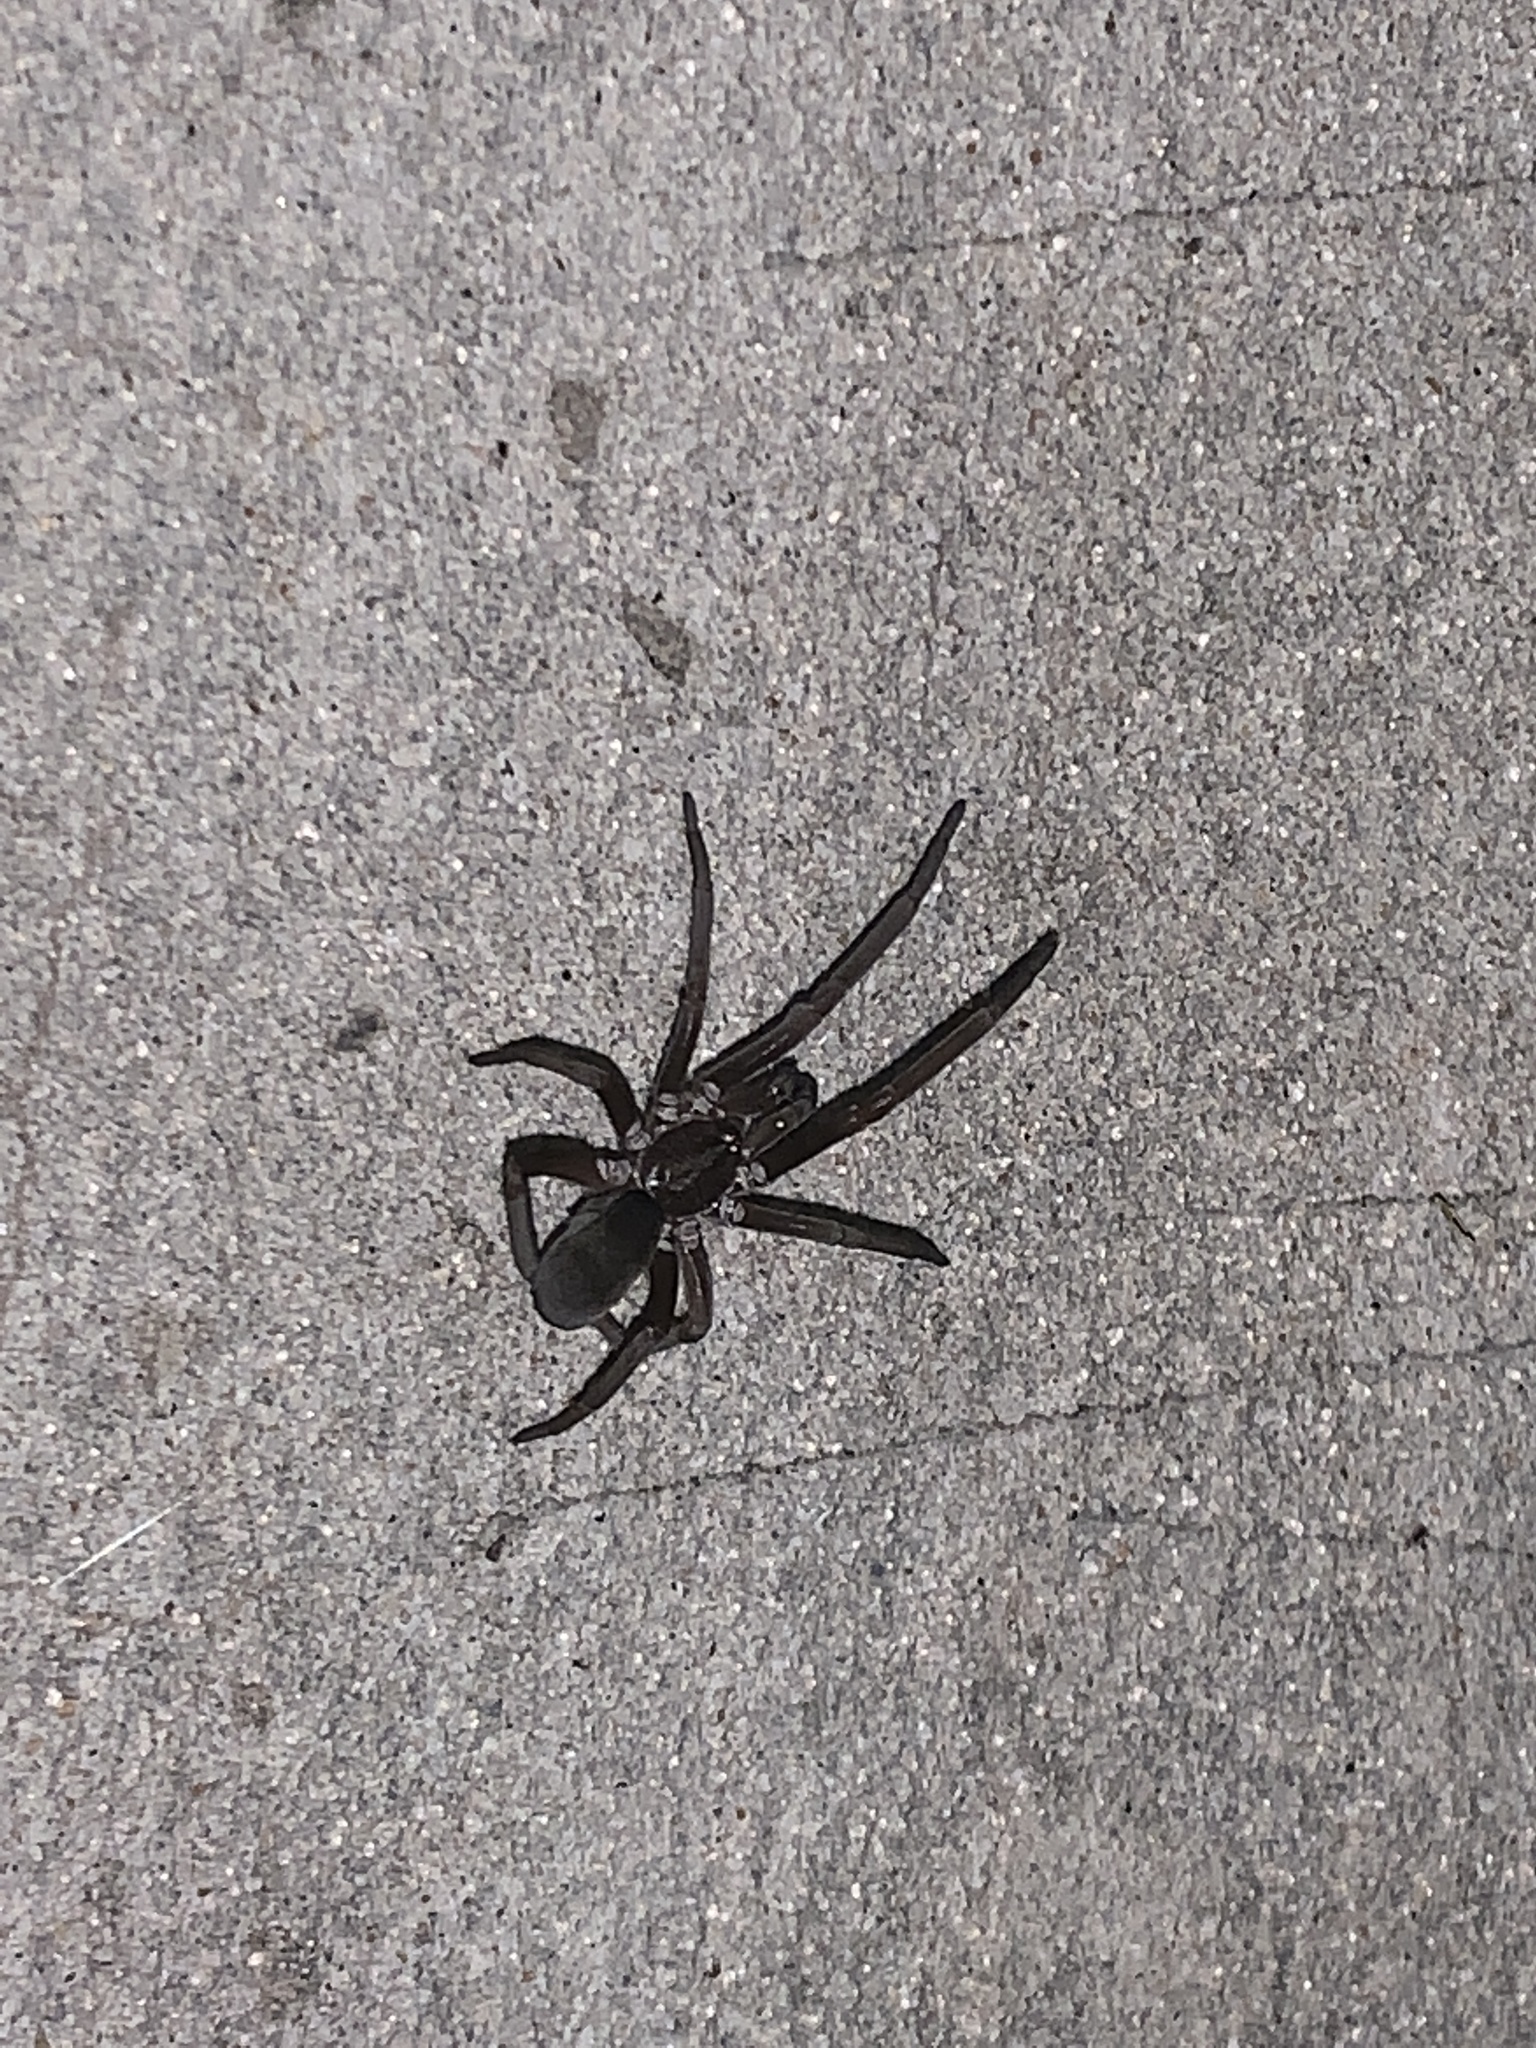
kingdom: Animalia
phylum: Arthropoda
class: Arachnida
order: Araneae
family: Filistatidae
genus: Kukulcania
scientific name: Kukulcania hibernalis
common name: Crevice weaver
